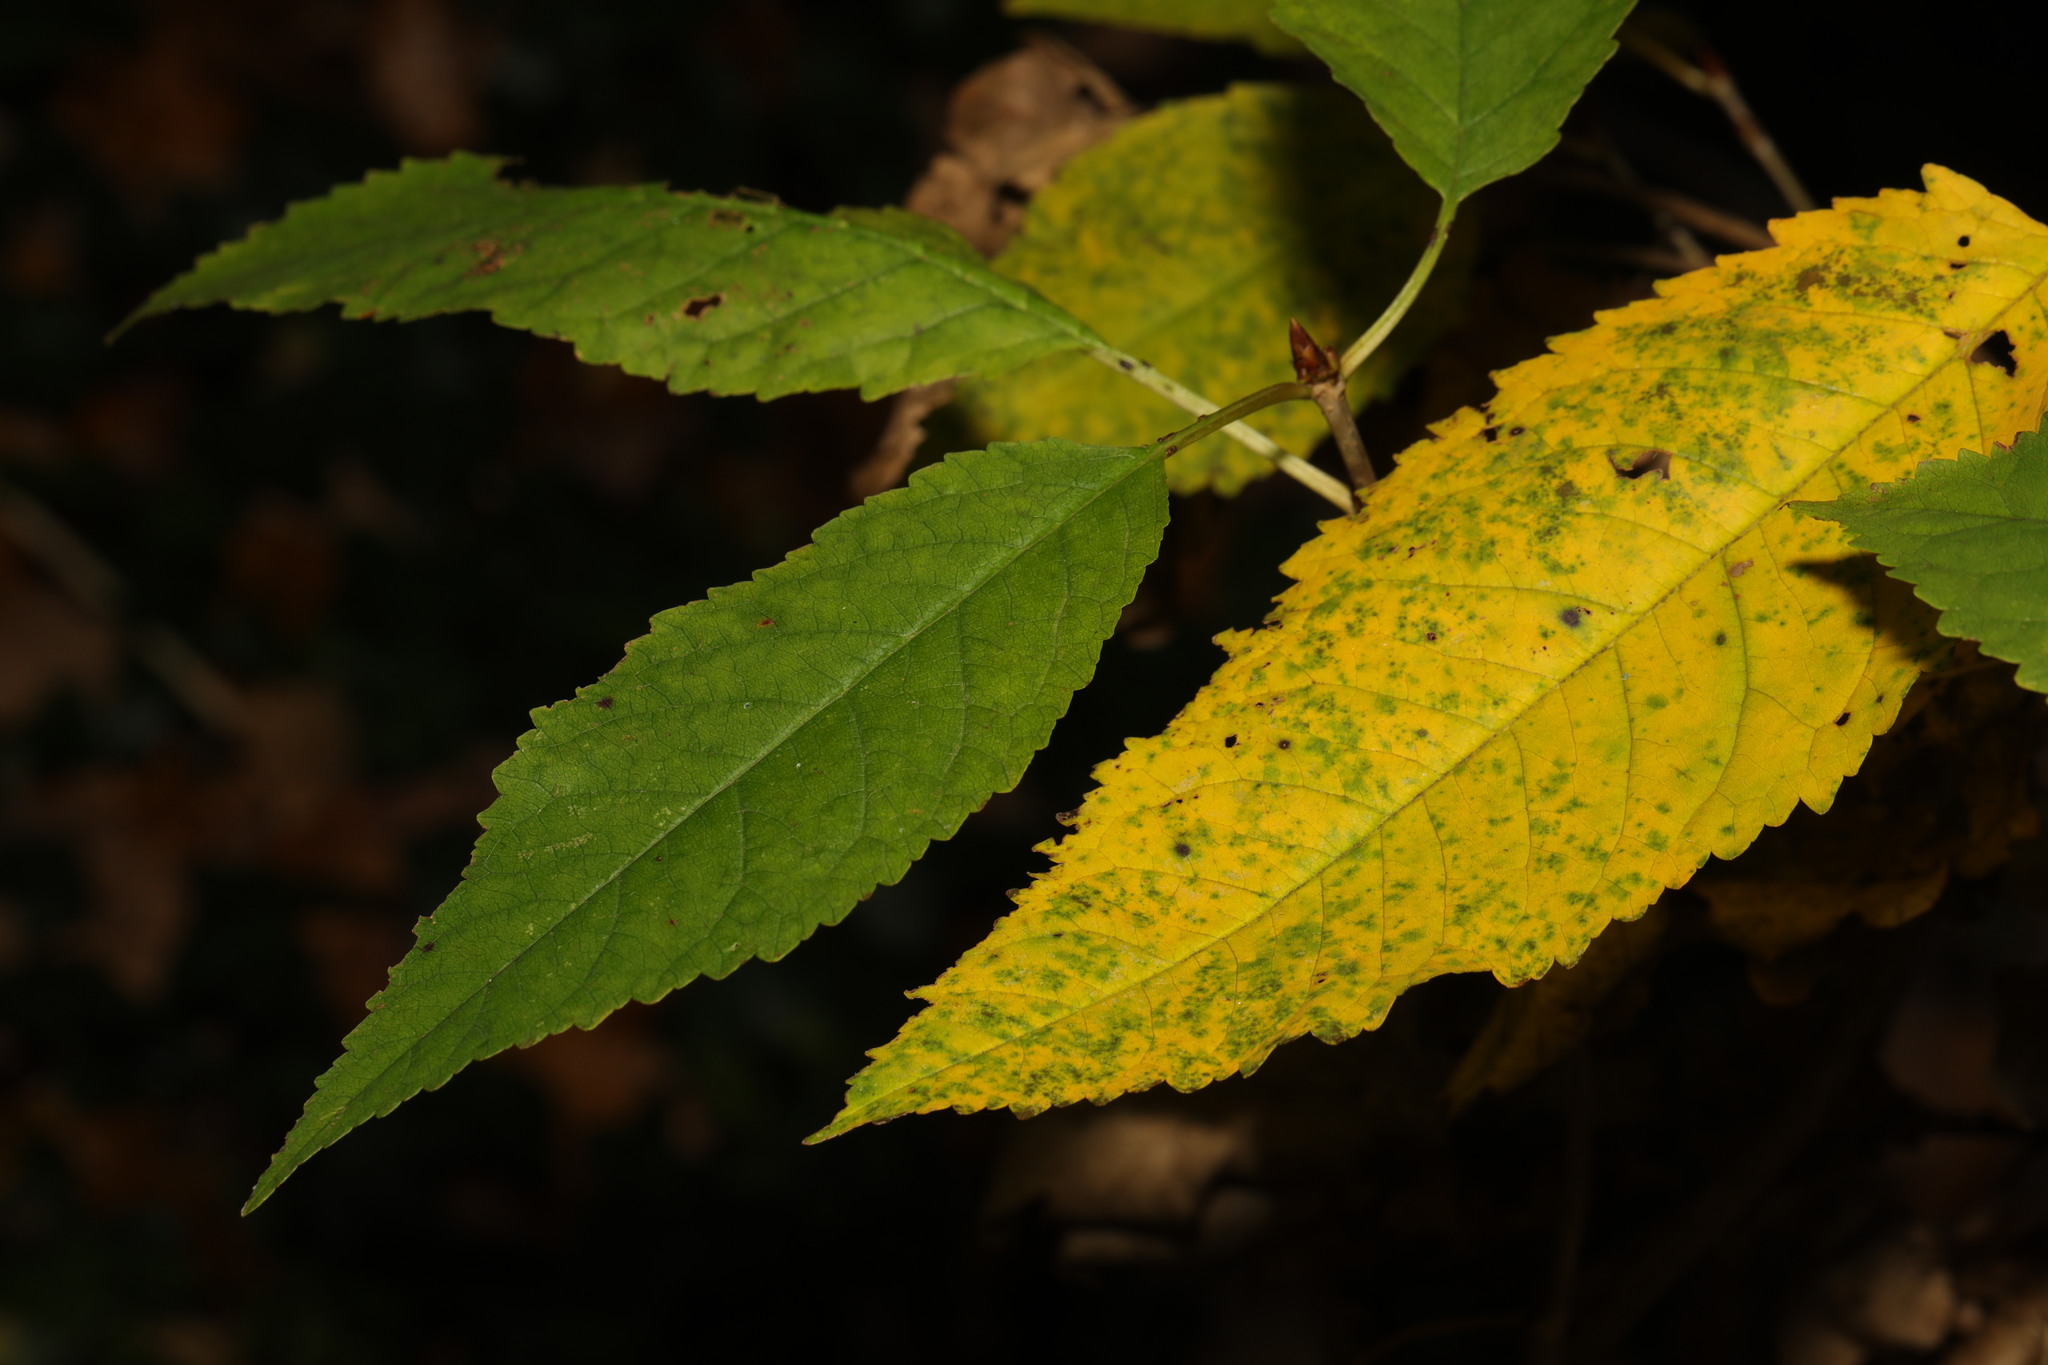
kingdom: Plantae
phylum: Tracheophyta
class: Magnoliopsida
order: Rosales
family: Rosaceae
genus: Prunus
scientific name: Prunus avium
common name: Sweet cherry
